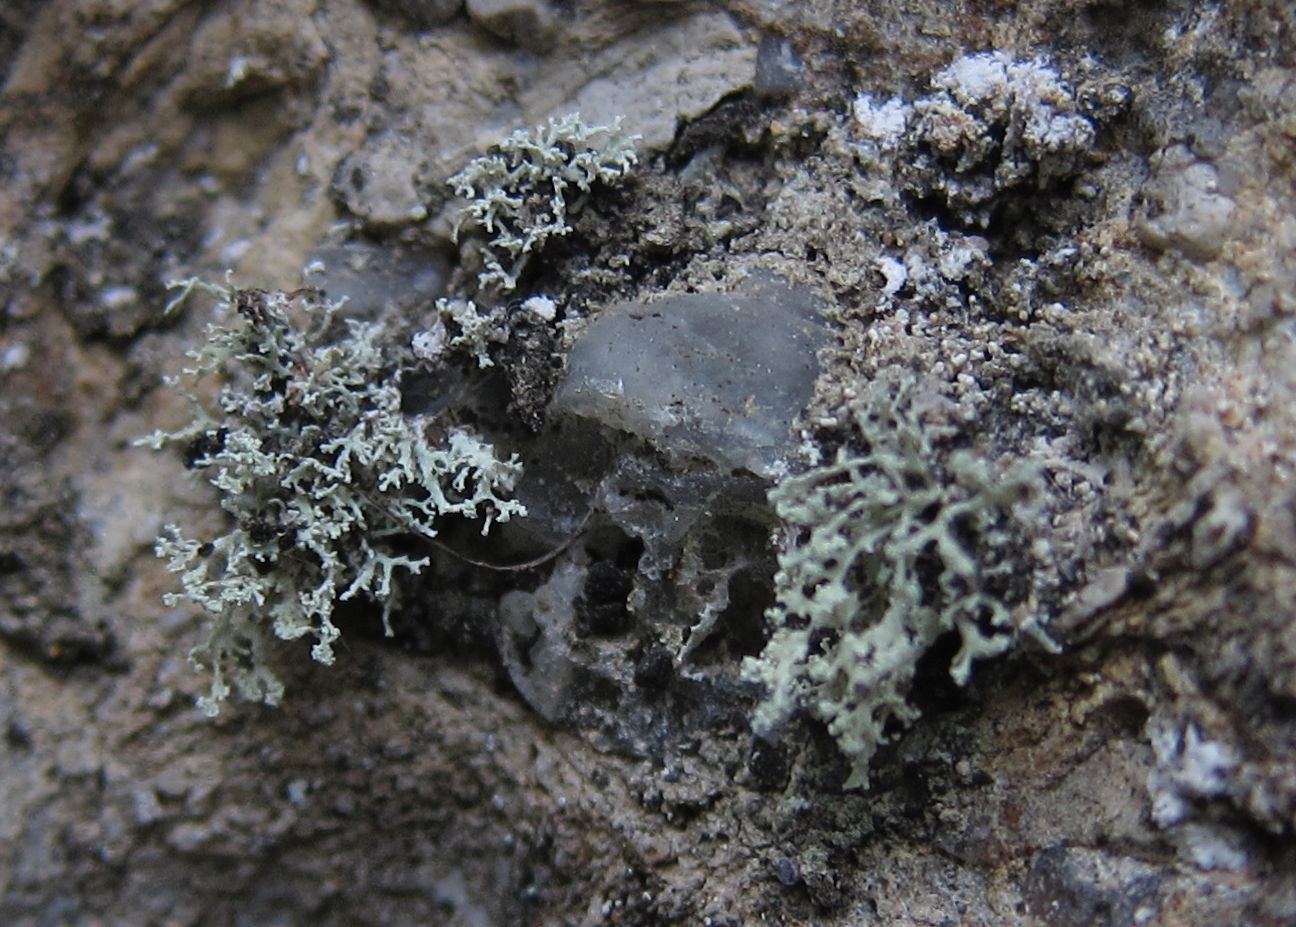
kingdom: Fungi
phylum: Ascomycota
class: Lecanoromycetes
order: Lecanorales
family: Ramalinaceae
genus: Ramalina
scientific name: Ramalina pollinaria
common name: Powdery twig lichen
